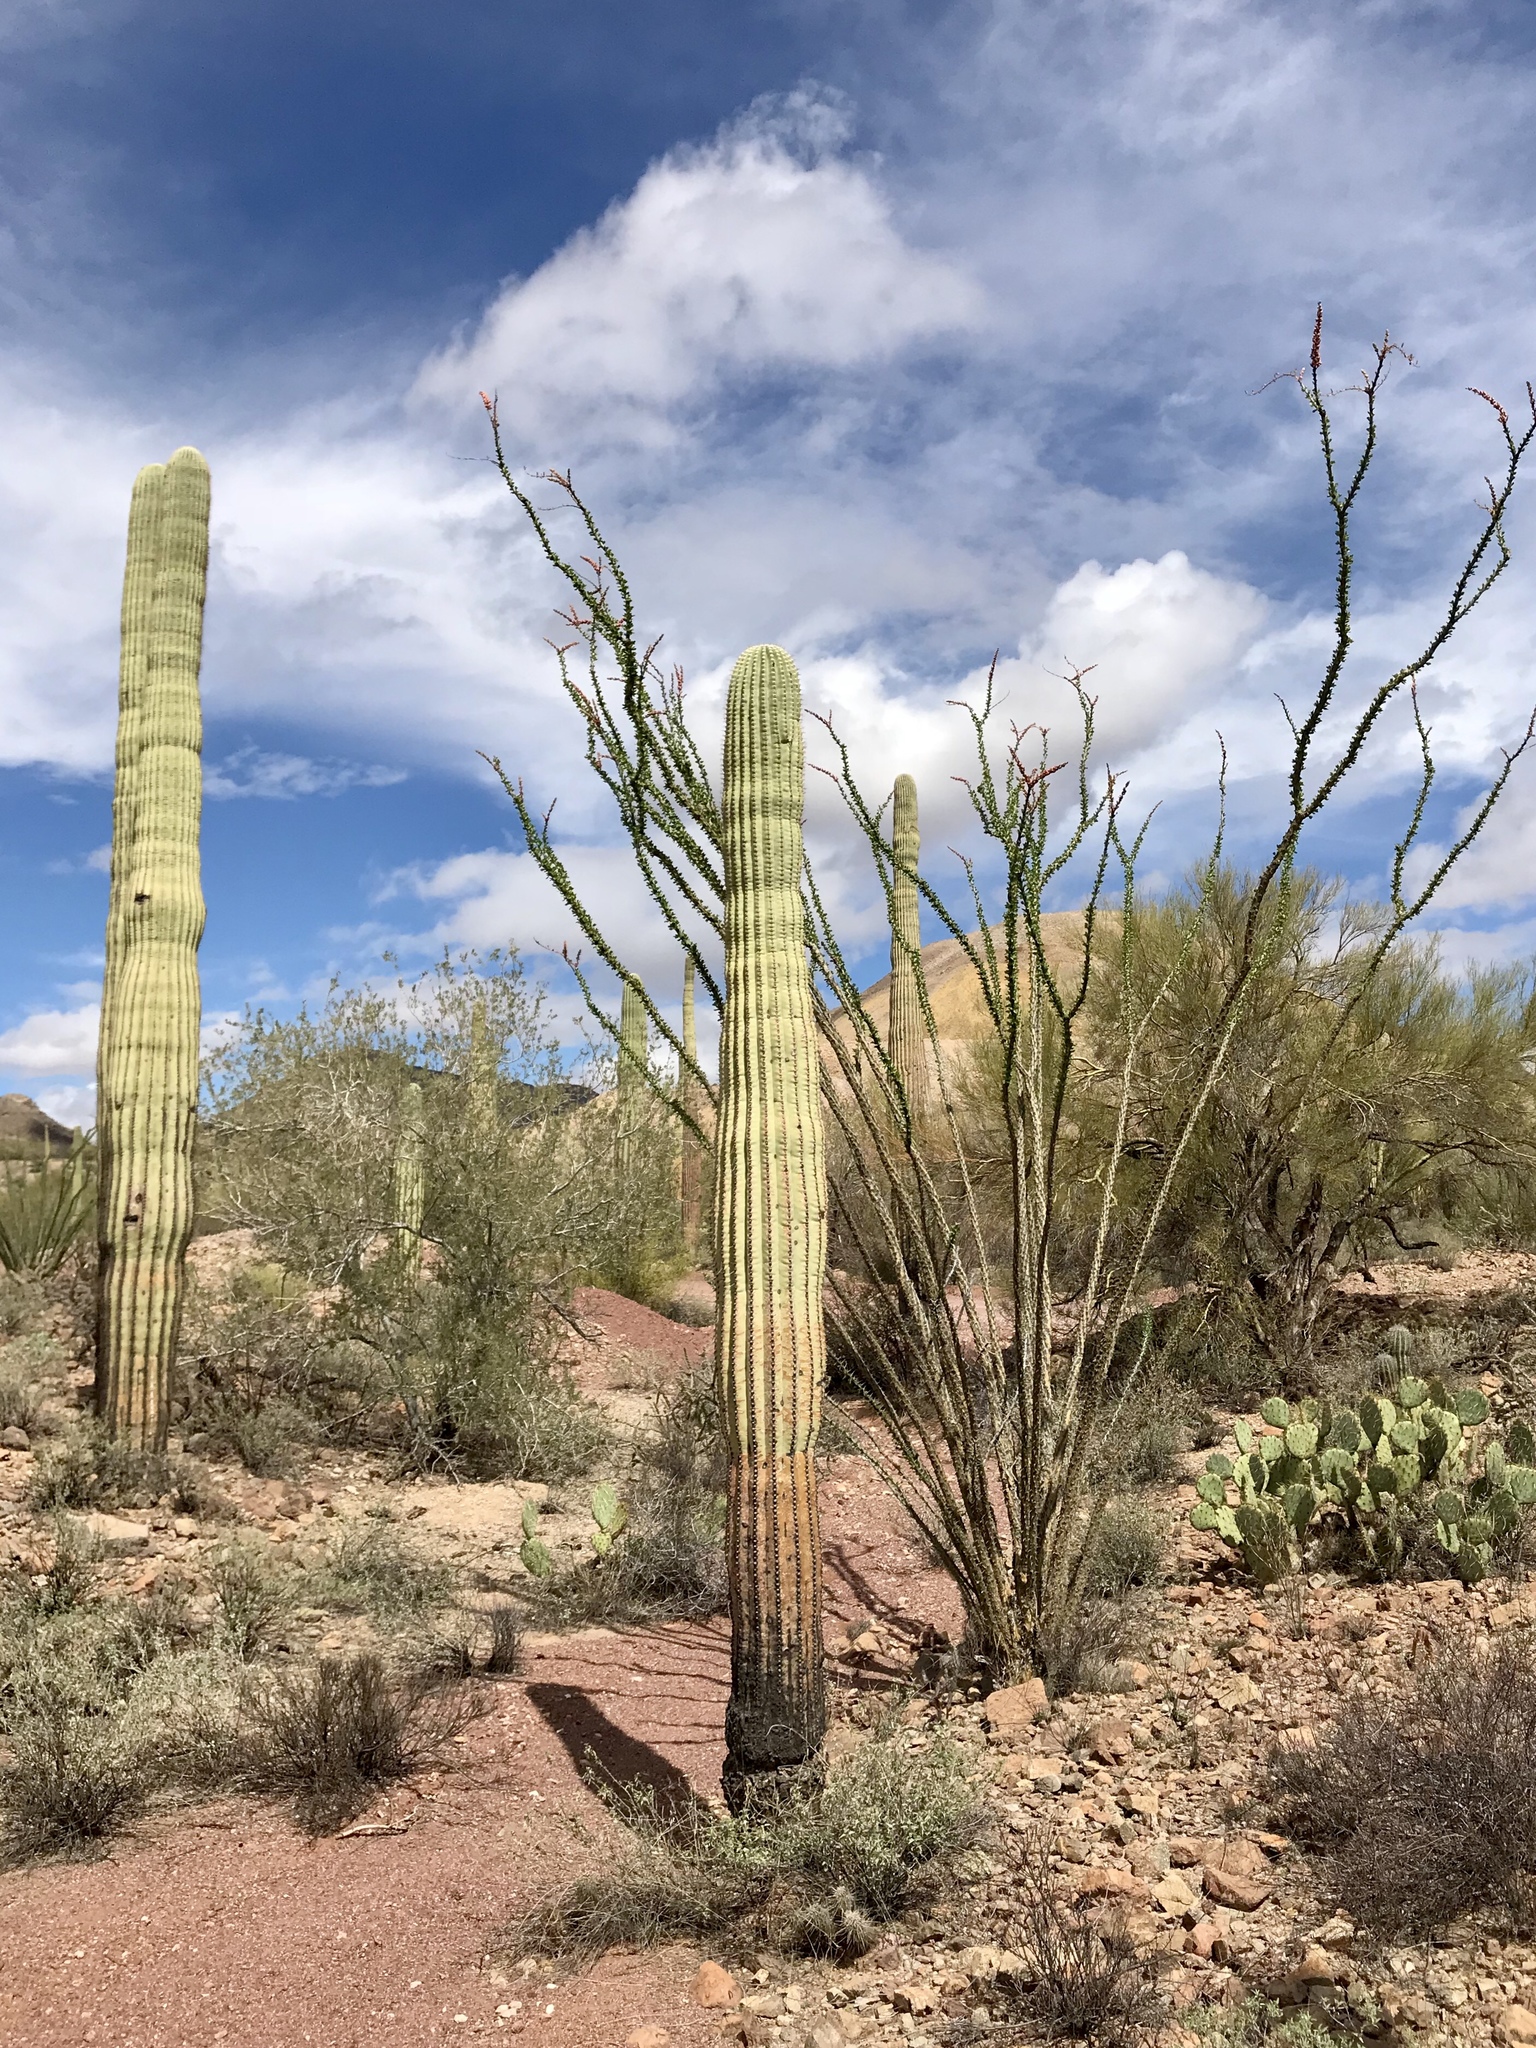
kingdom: Plantae
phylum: Tracheophyta
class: Magnoliopsida
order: Caryophyllales
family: Cactaceae
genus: Carnegiea
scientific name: Carnegiea gigantea
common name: Saguaro
